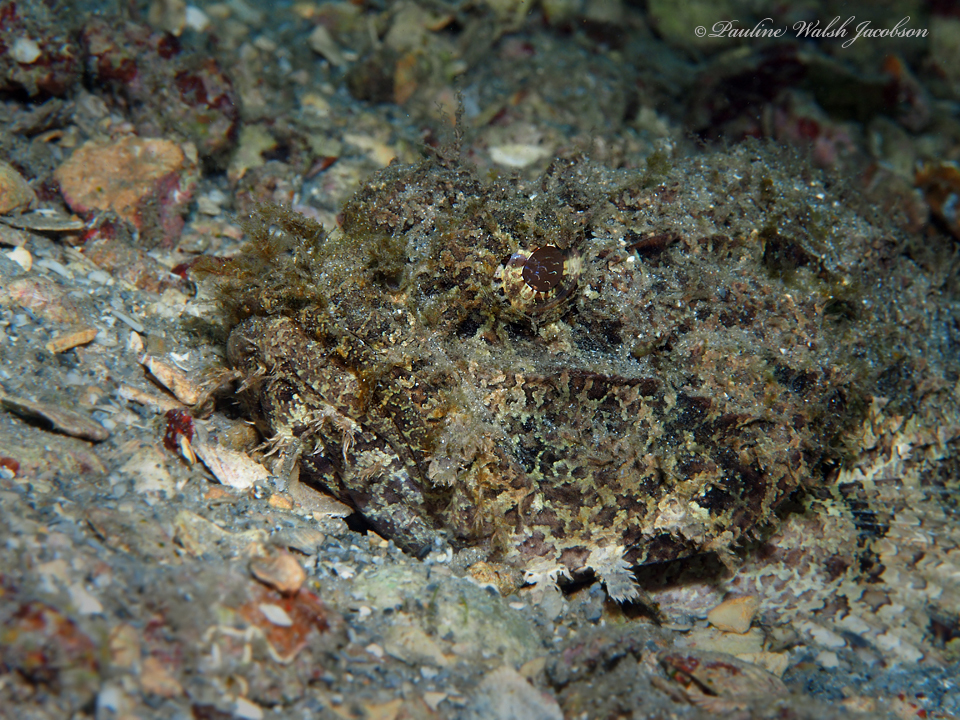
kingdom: Animalia
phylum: Chordata
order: Scorpaeniformes
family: Scorpaenidae
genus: Scorpaena
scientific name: Scorpaena plumieri
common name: Spotted scorpionfish
